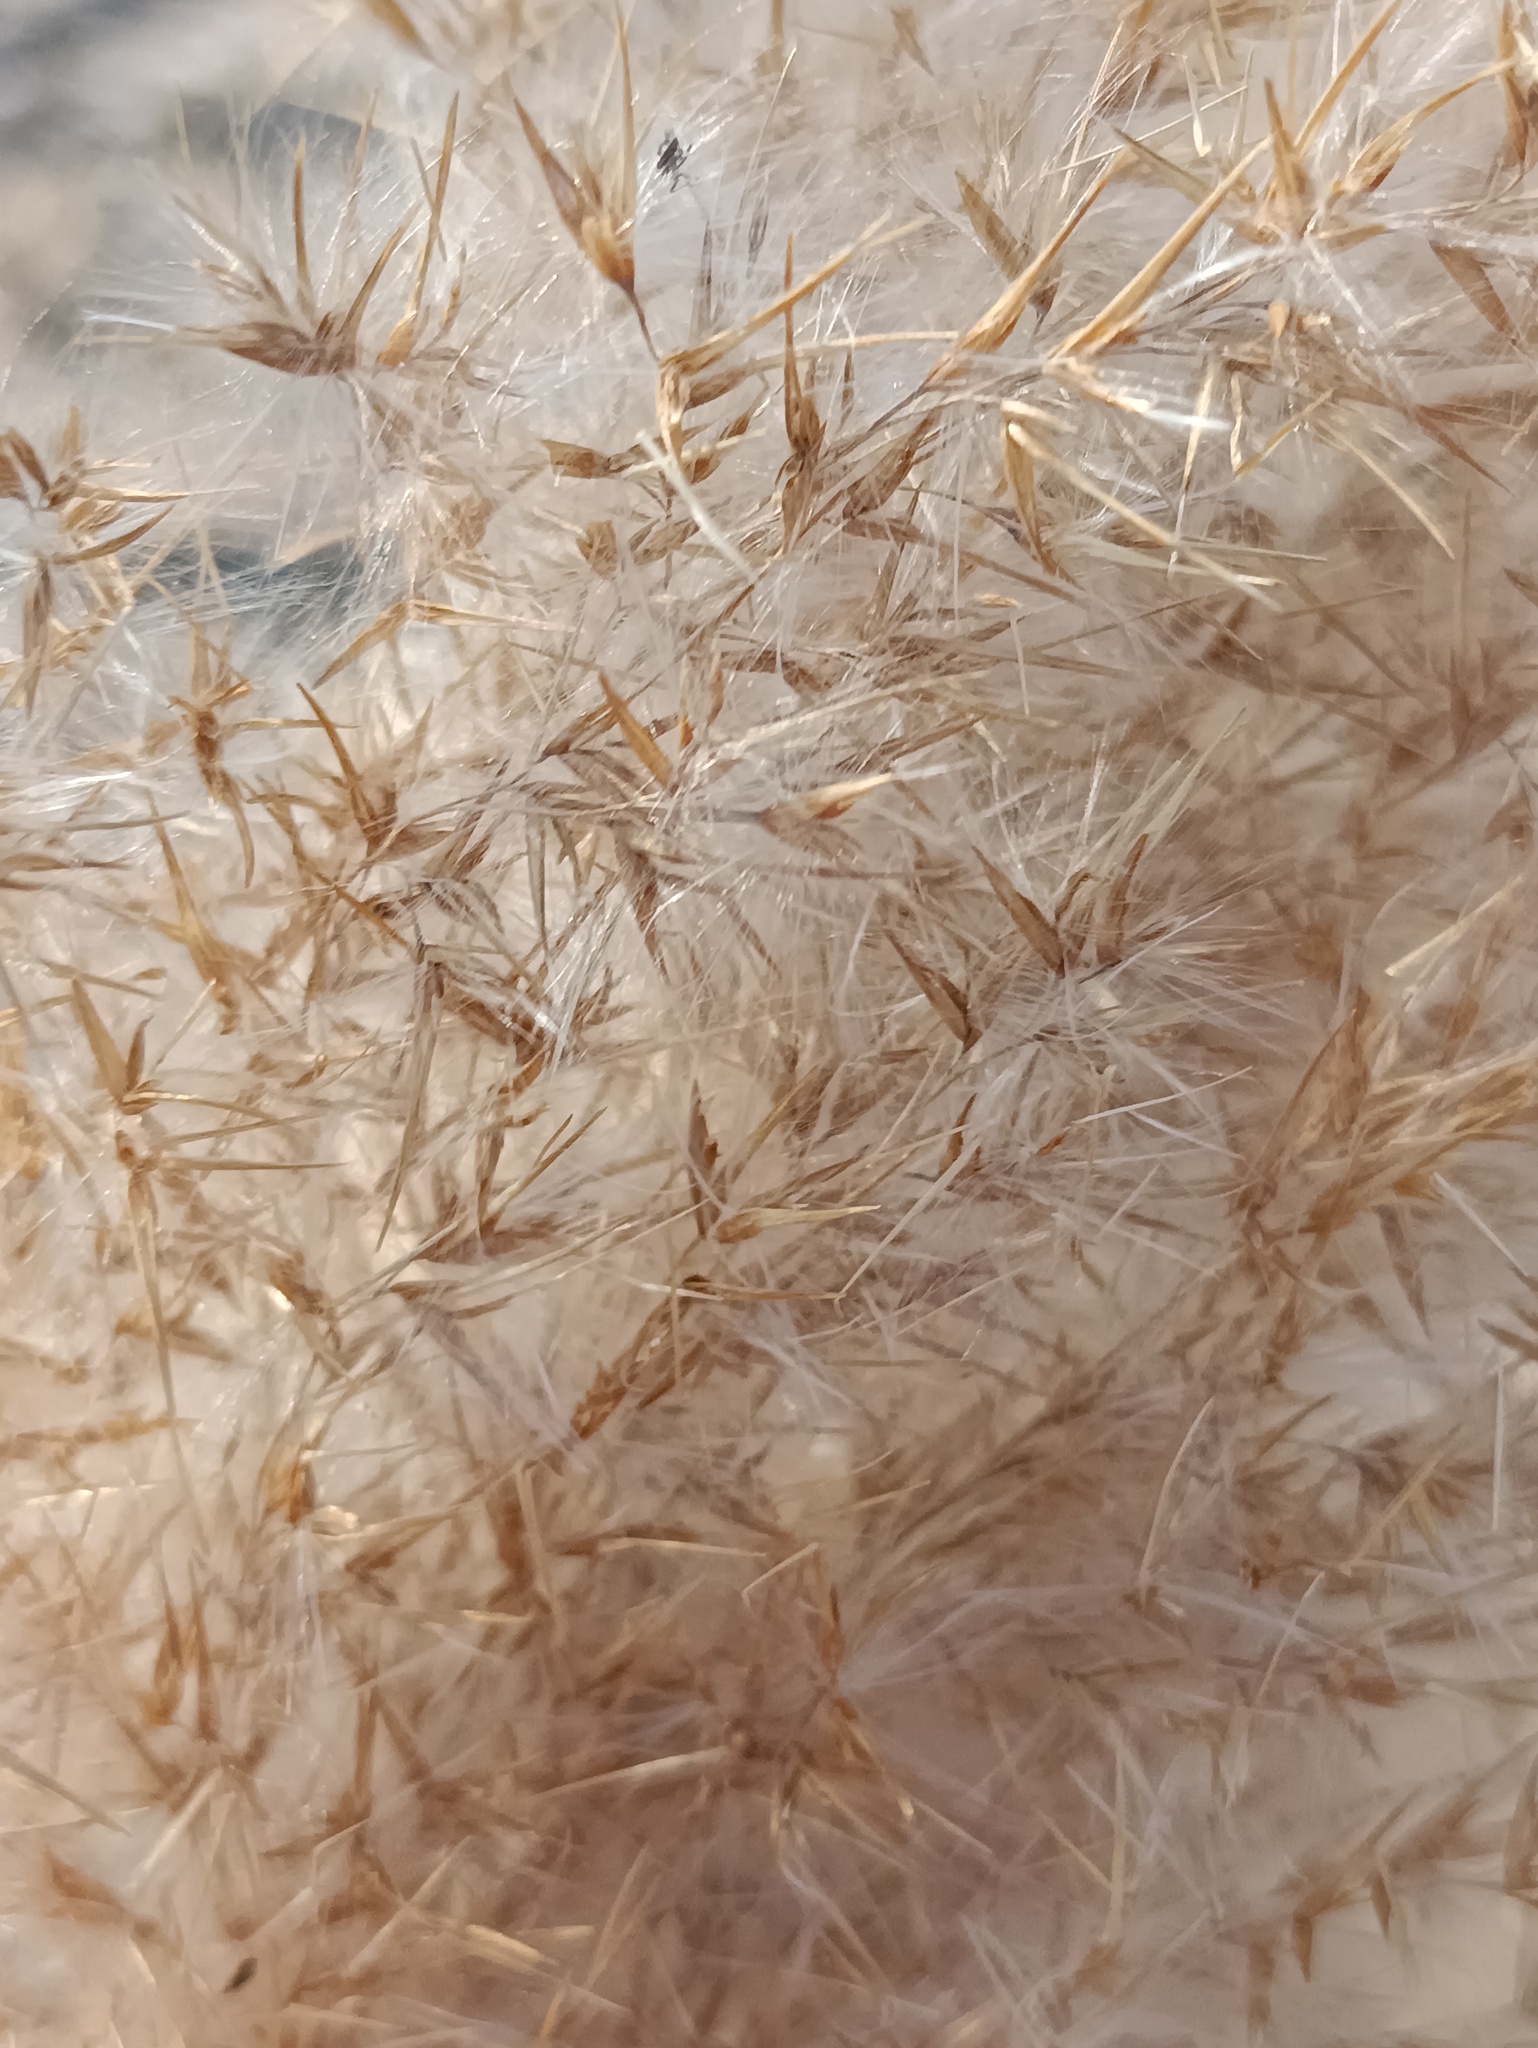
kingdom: Plantae
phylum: Tracheophyta
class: Liliopsida
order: Poales
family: Poaceae
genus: Phragmites
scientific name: Phragmites australis
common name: Common reed
